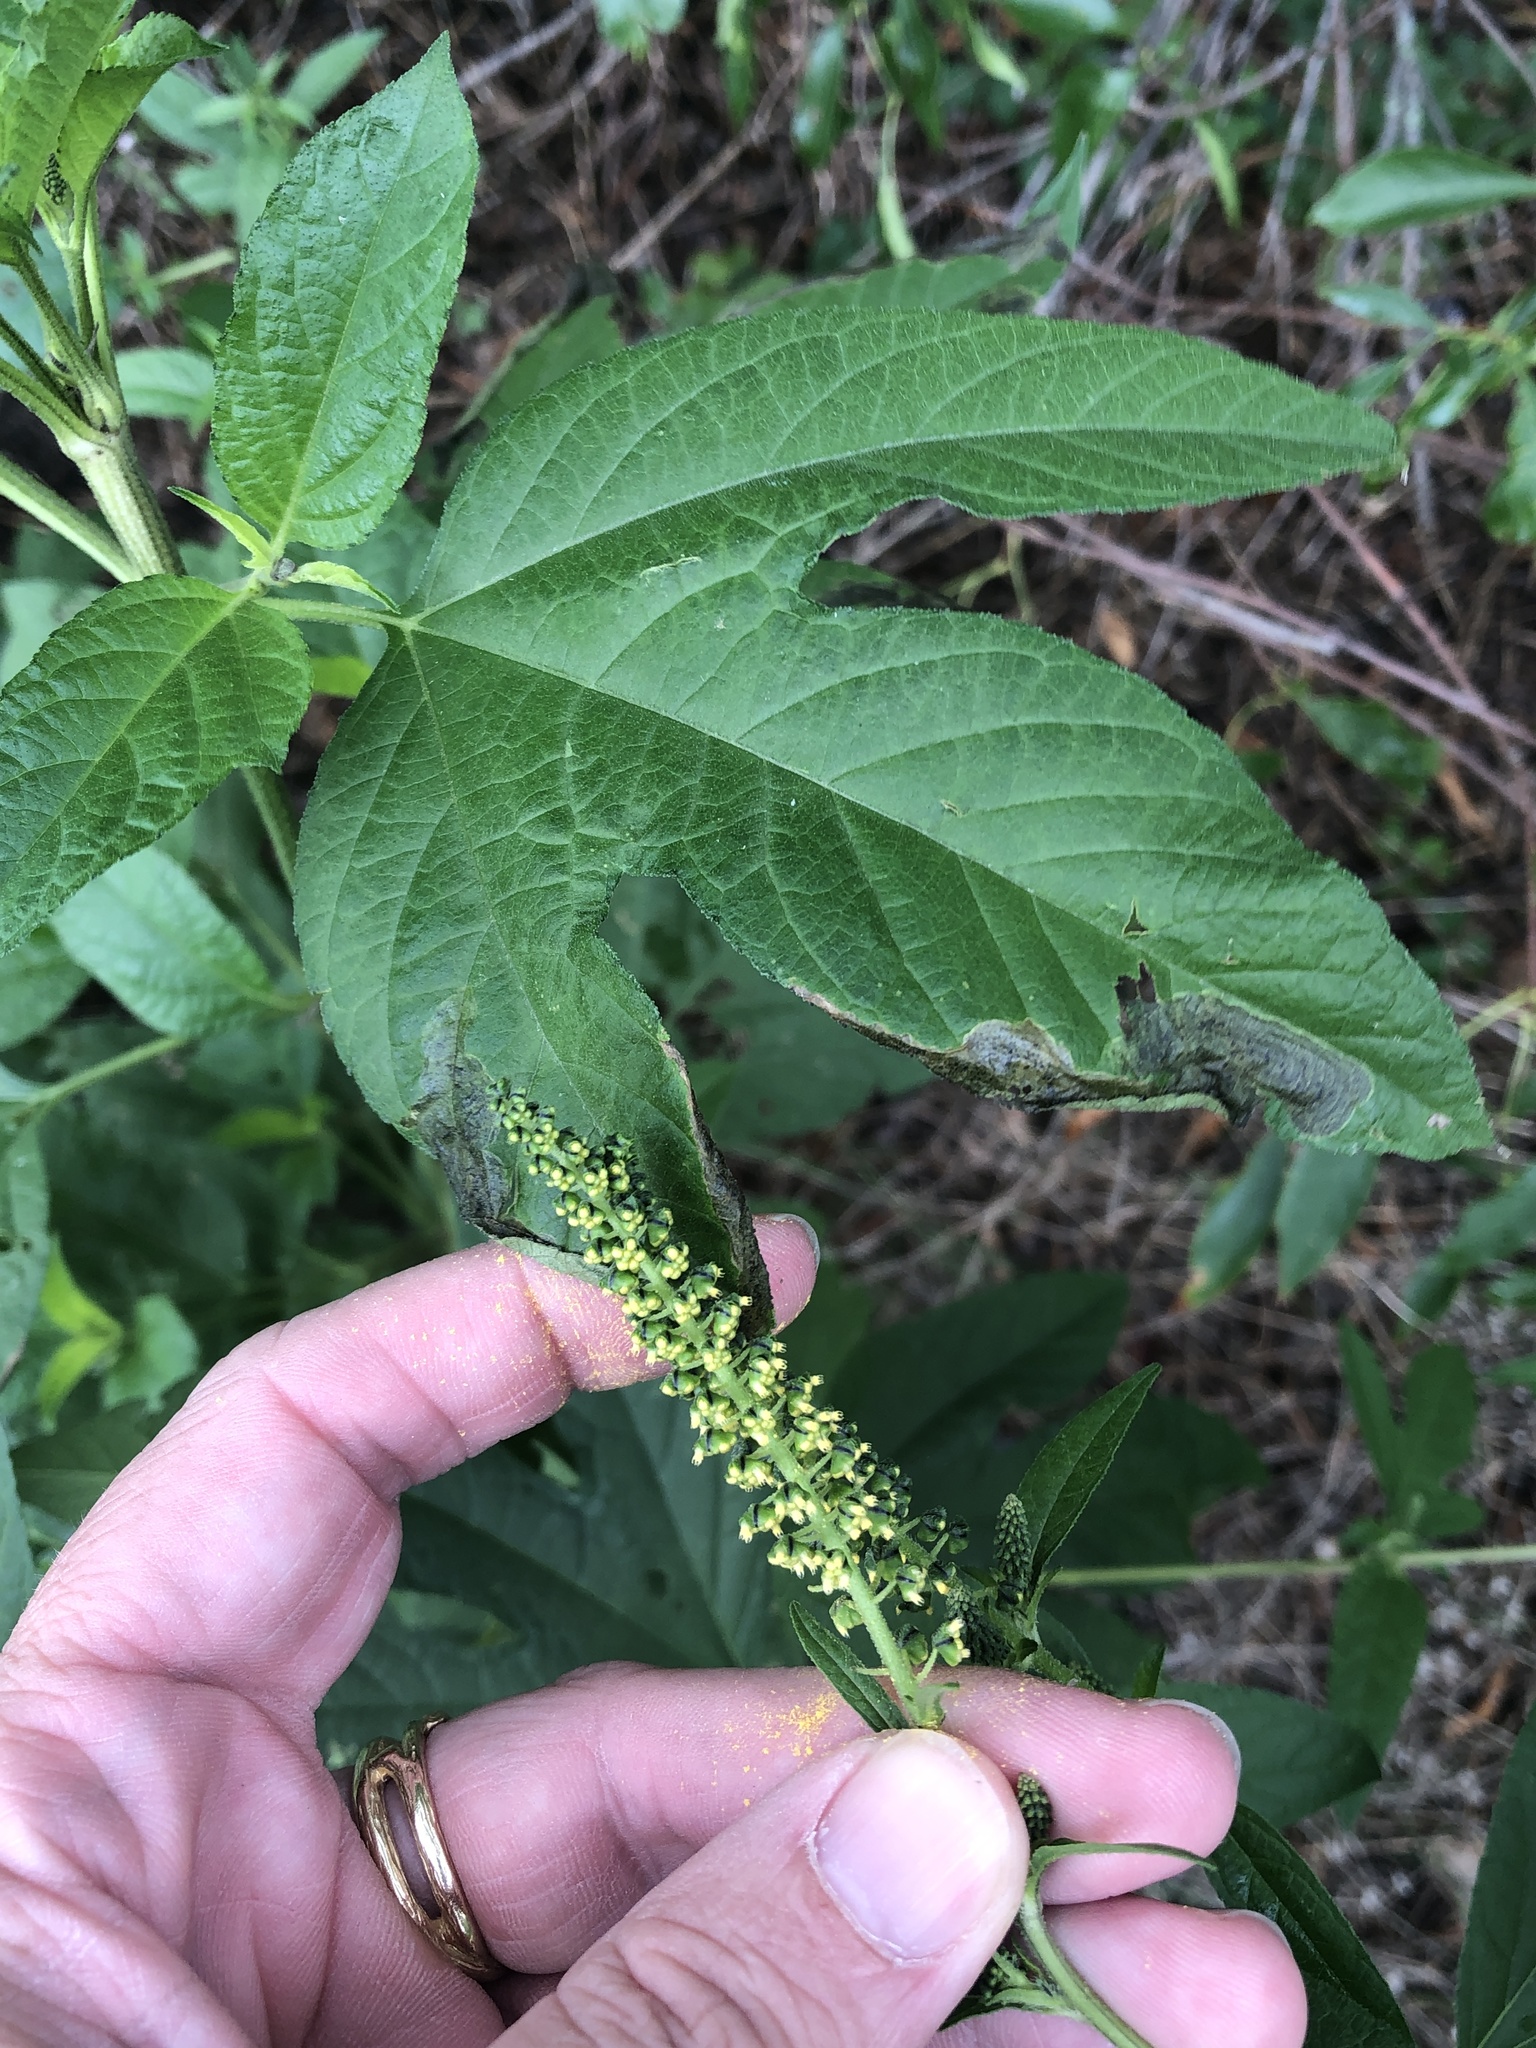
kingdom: Plantae
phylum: Tracheophyta
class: Magnoliopsida
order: Asterales
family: Asteraceae
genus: Ambrosia
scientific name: Ambrosia trifida
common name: Giant ragweed
